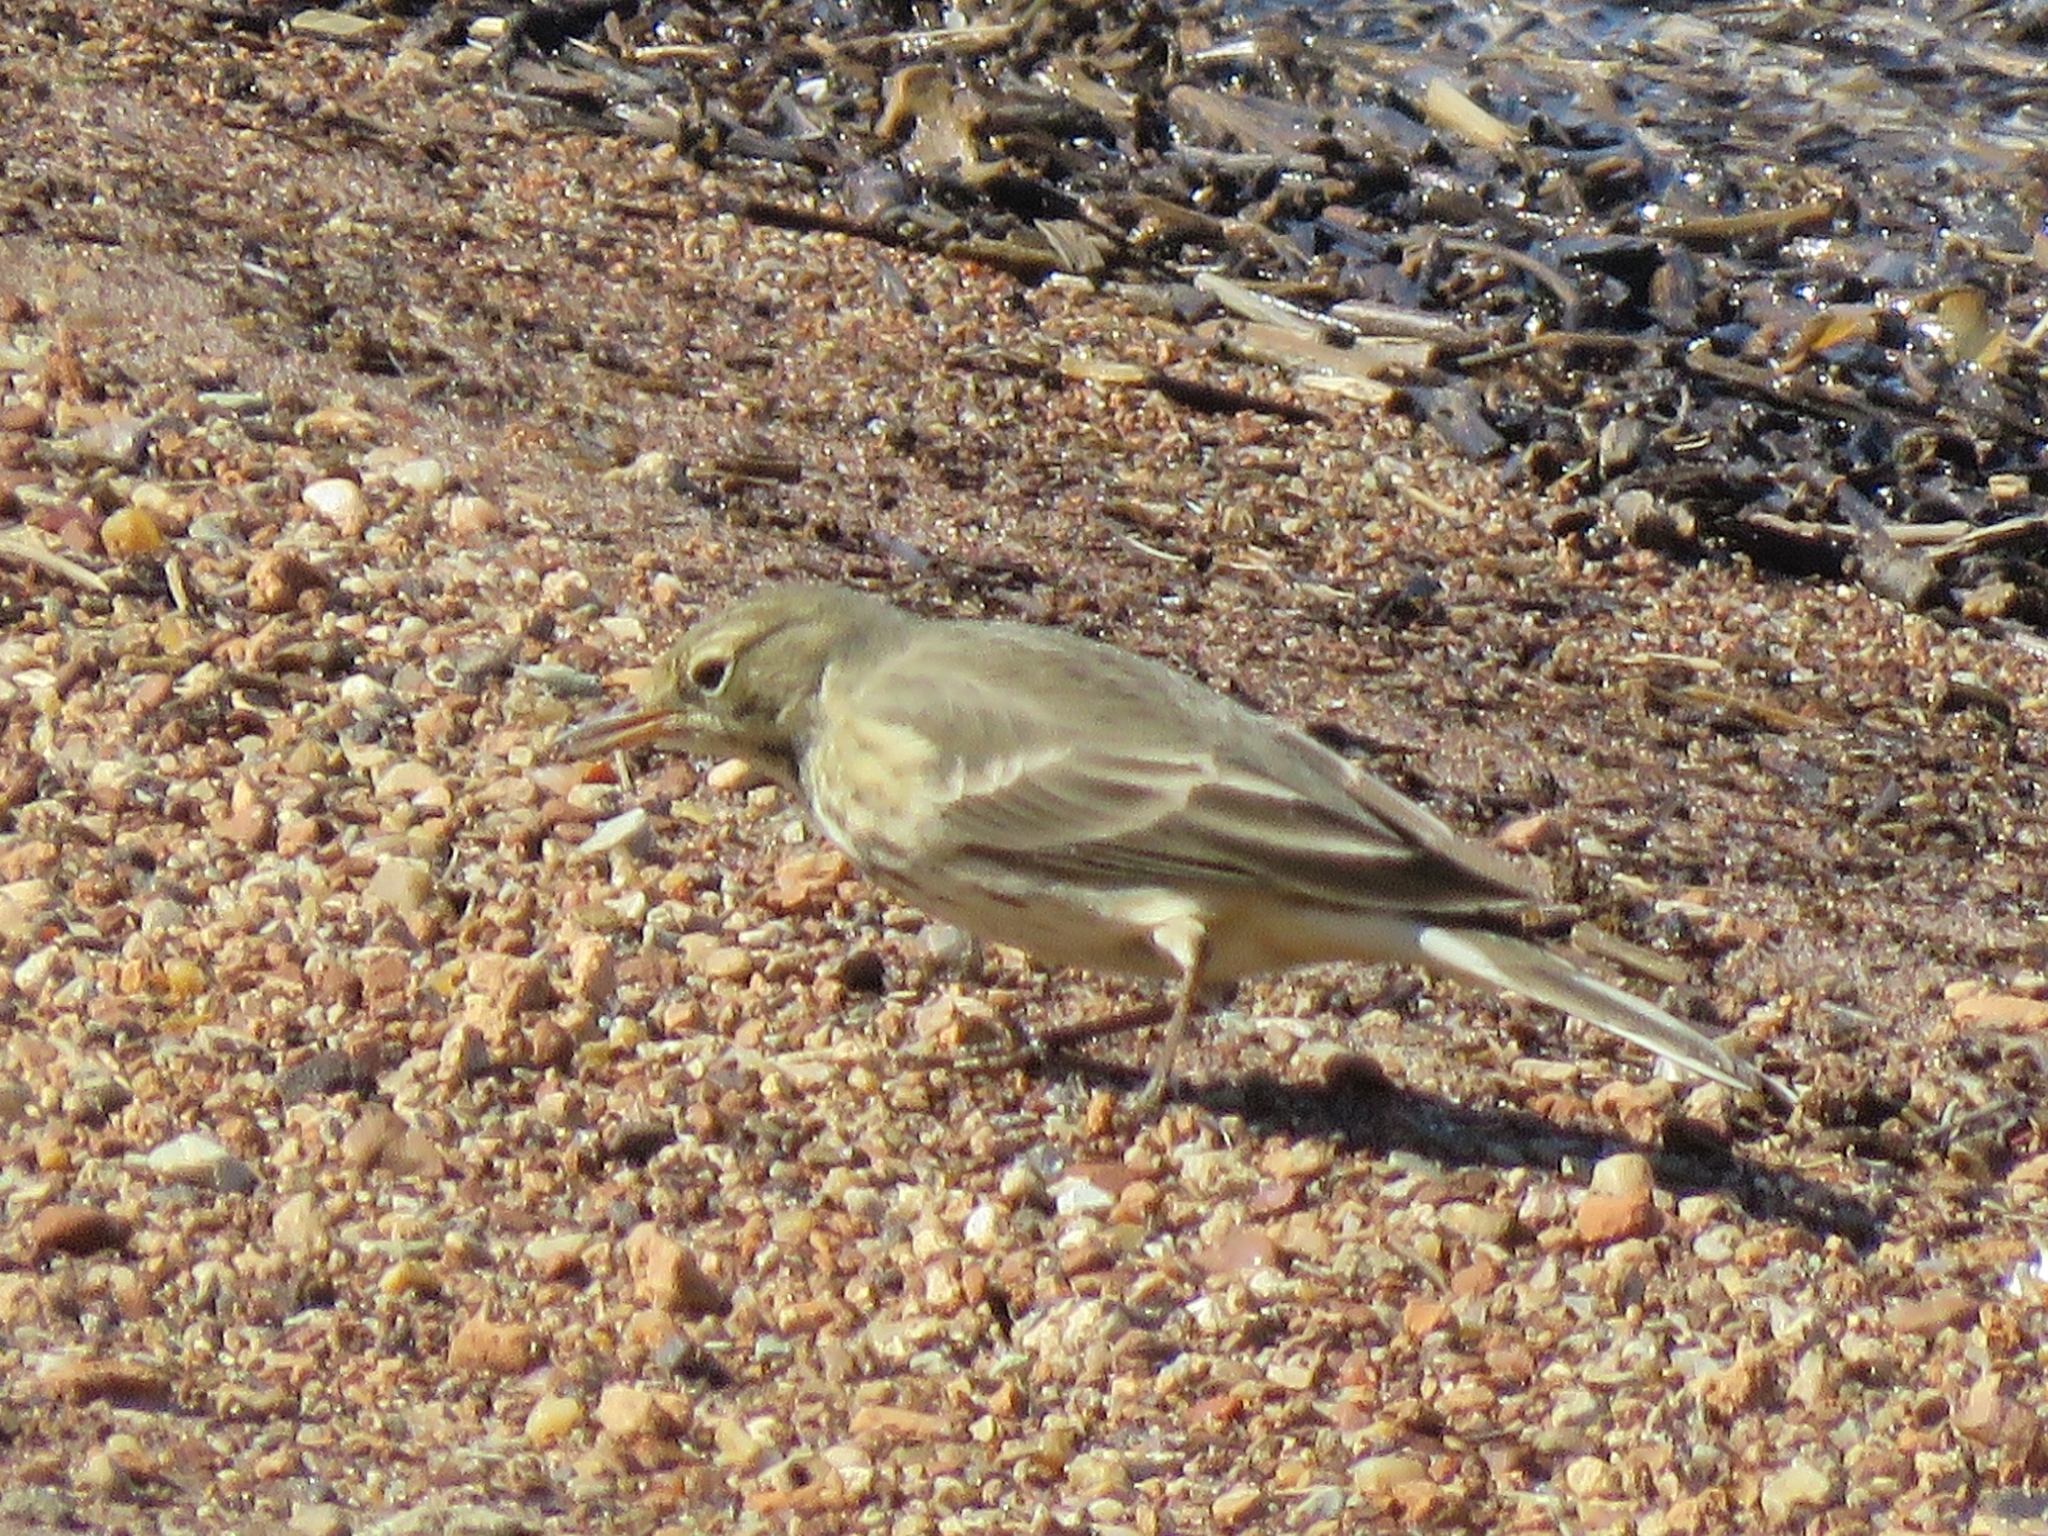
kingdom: Animalia
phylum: Chordata
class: Aves
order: Passeriformes
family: Motacillidae
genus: Anthus
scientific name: Anthus rubescens
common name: Buff-bellied pipit
